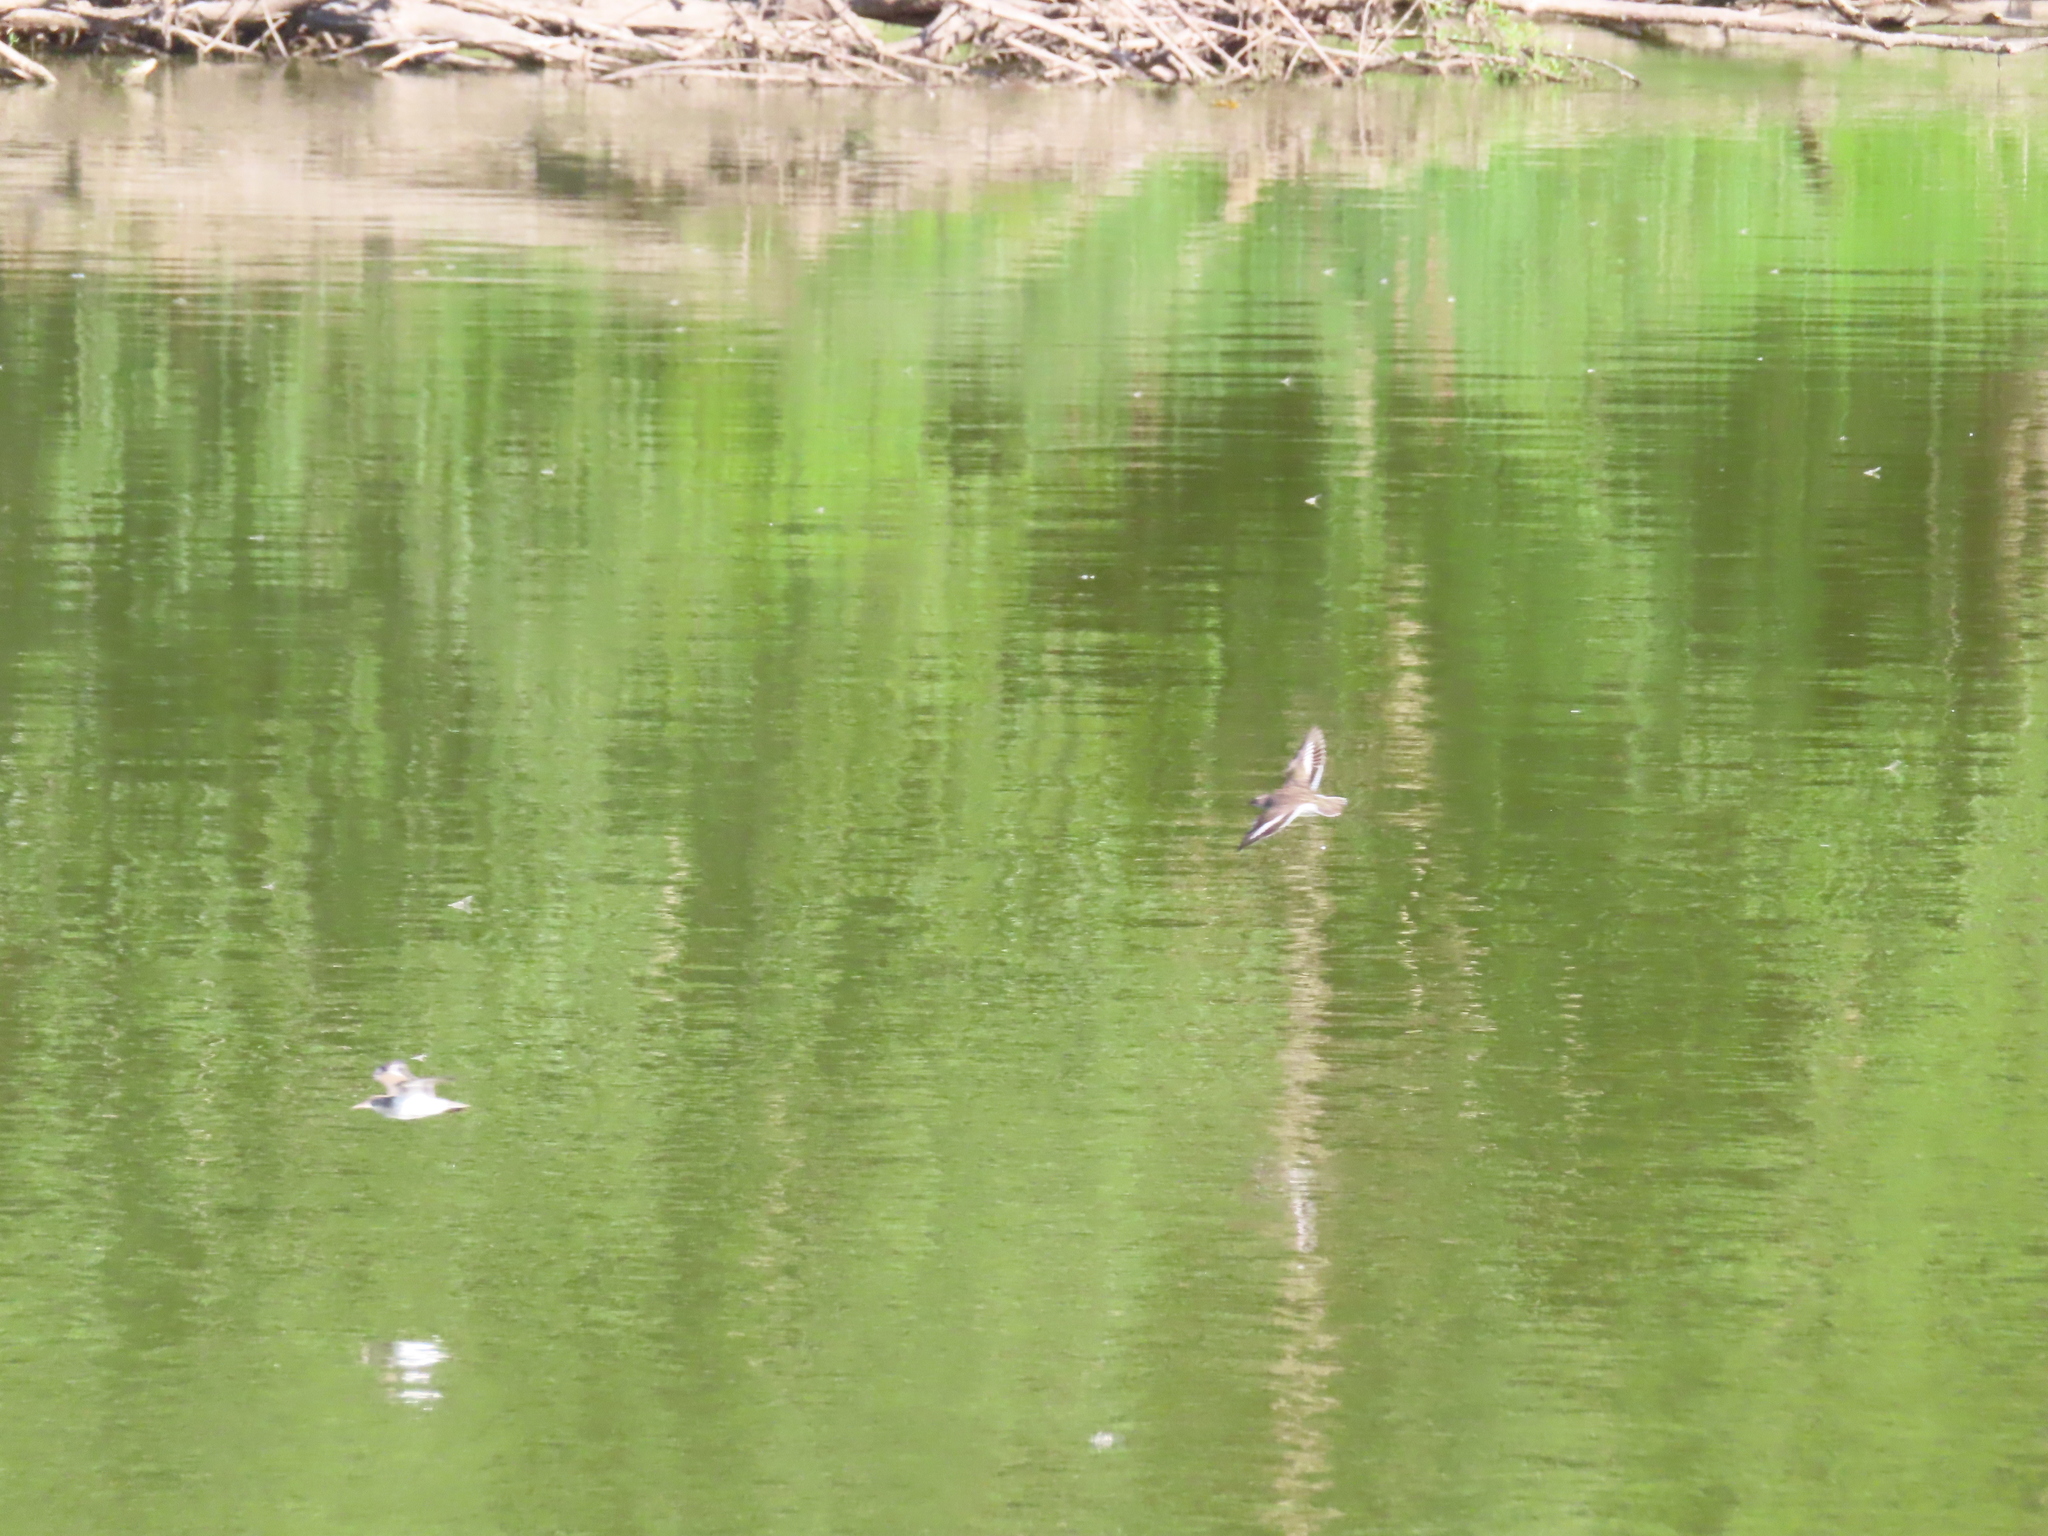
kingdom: Animalia
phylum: Chordata
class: Aves
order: Charadriiformes
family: Scolopacidae
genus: Actitis
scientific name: Actitis macularius
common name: Spotted sandpiper
